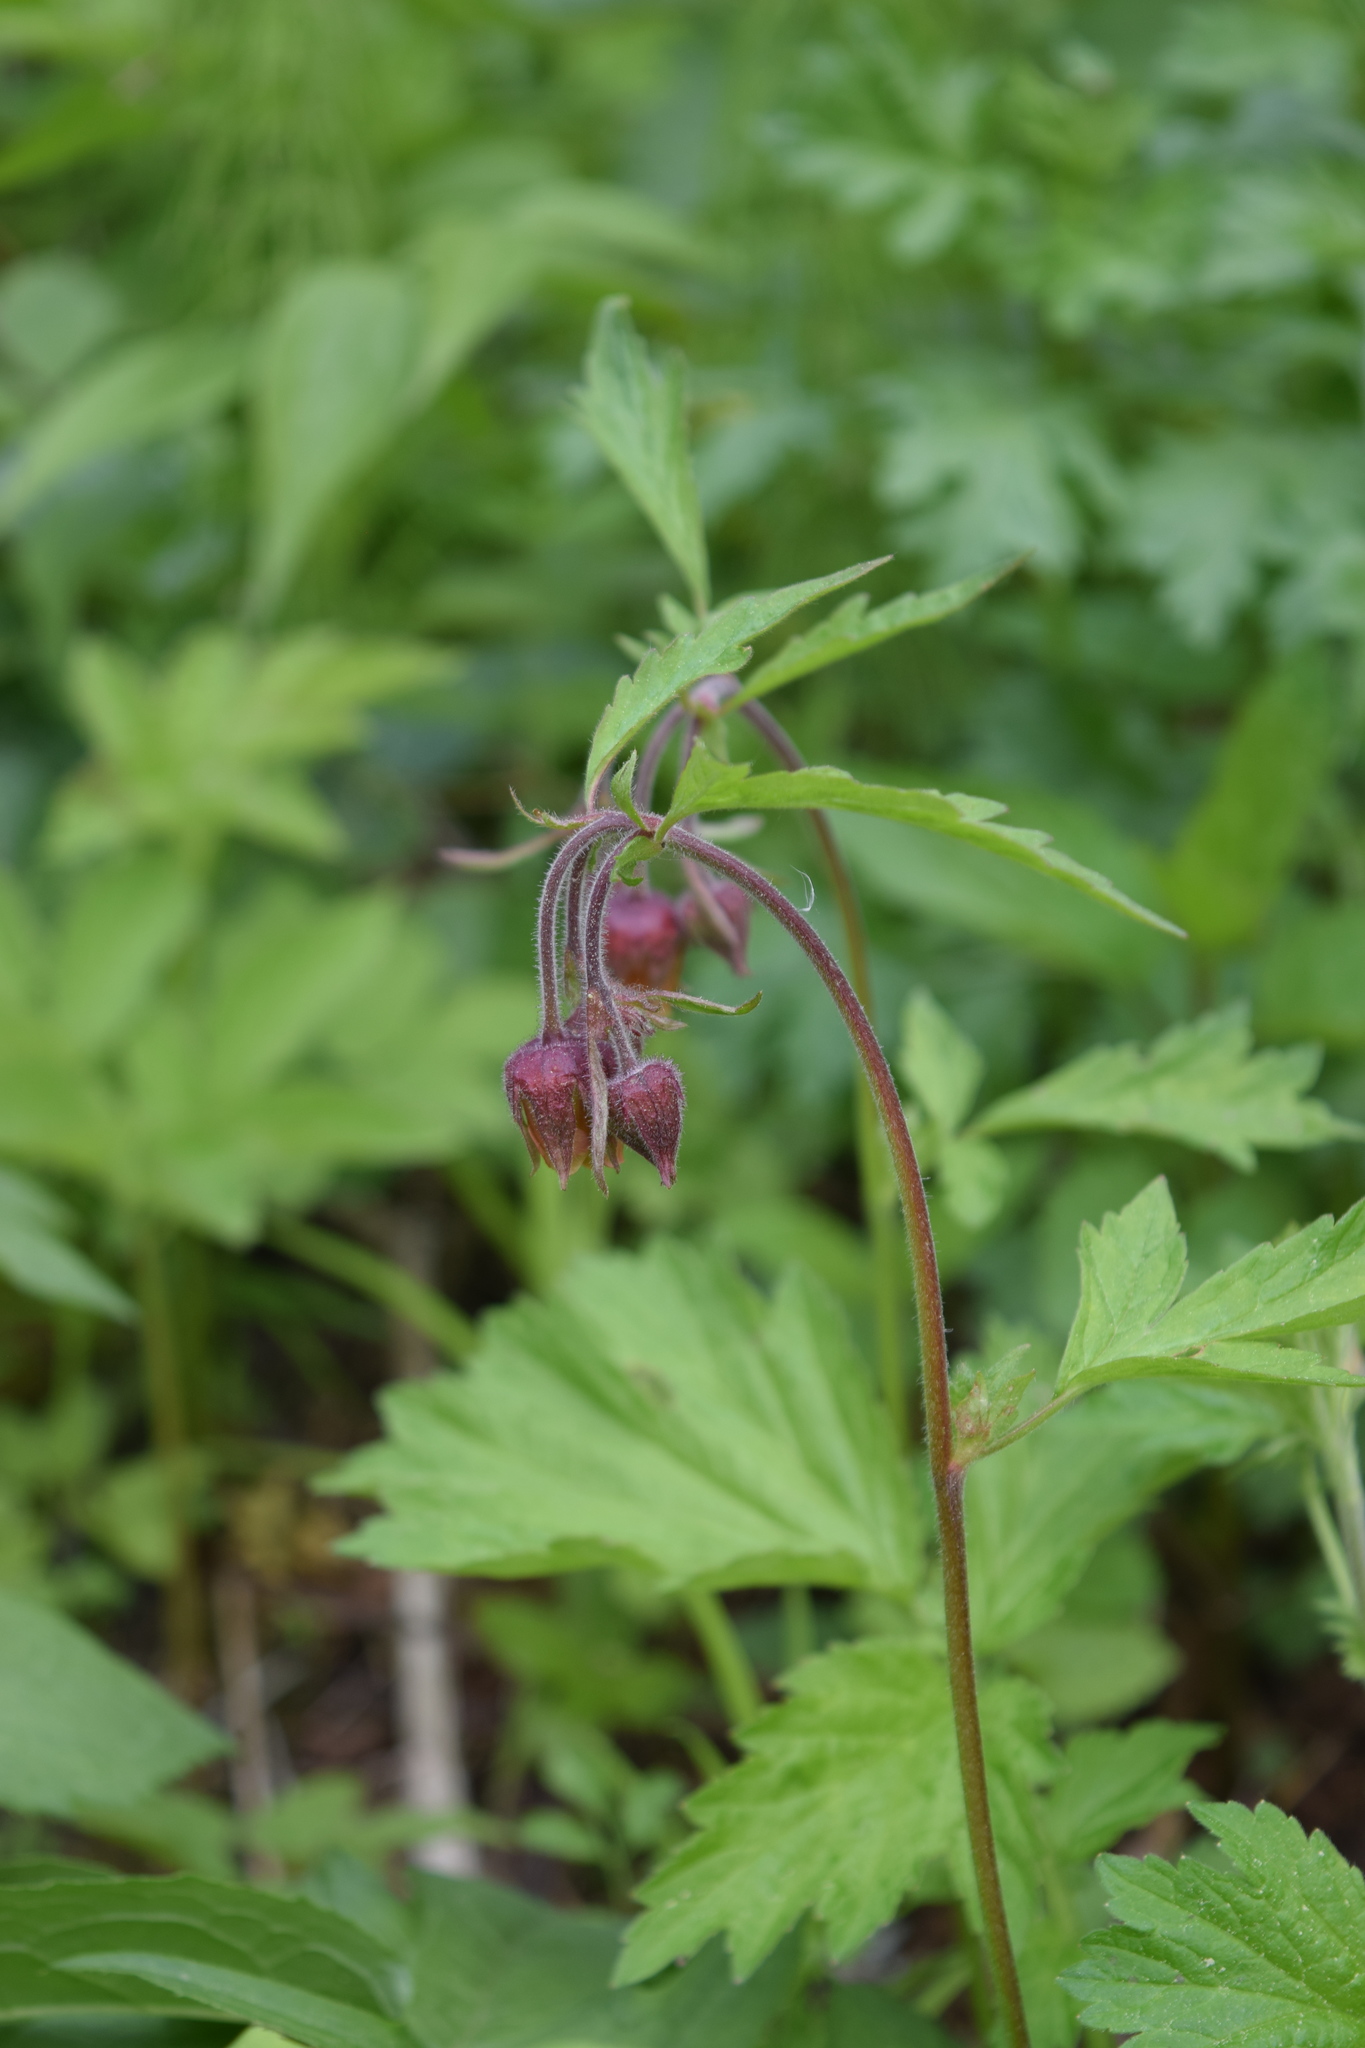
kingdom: Plantae
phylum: Tracheophyta
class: Magnoliopsida
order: Rosales
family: Rosaceae
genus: Geum
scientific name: Geum rivale
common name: Water avens
